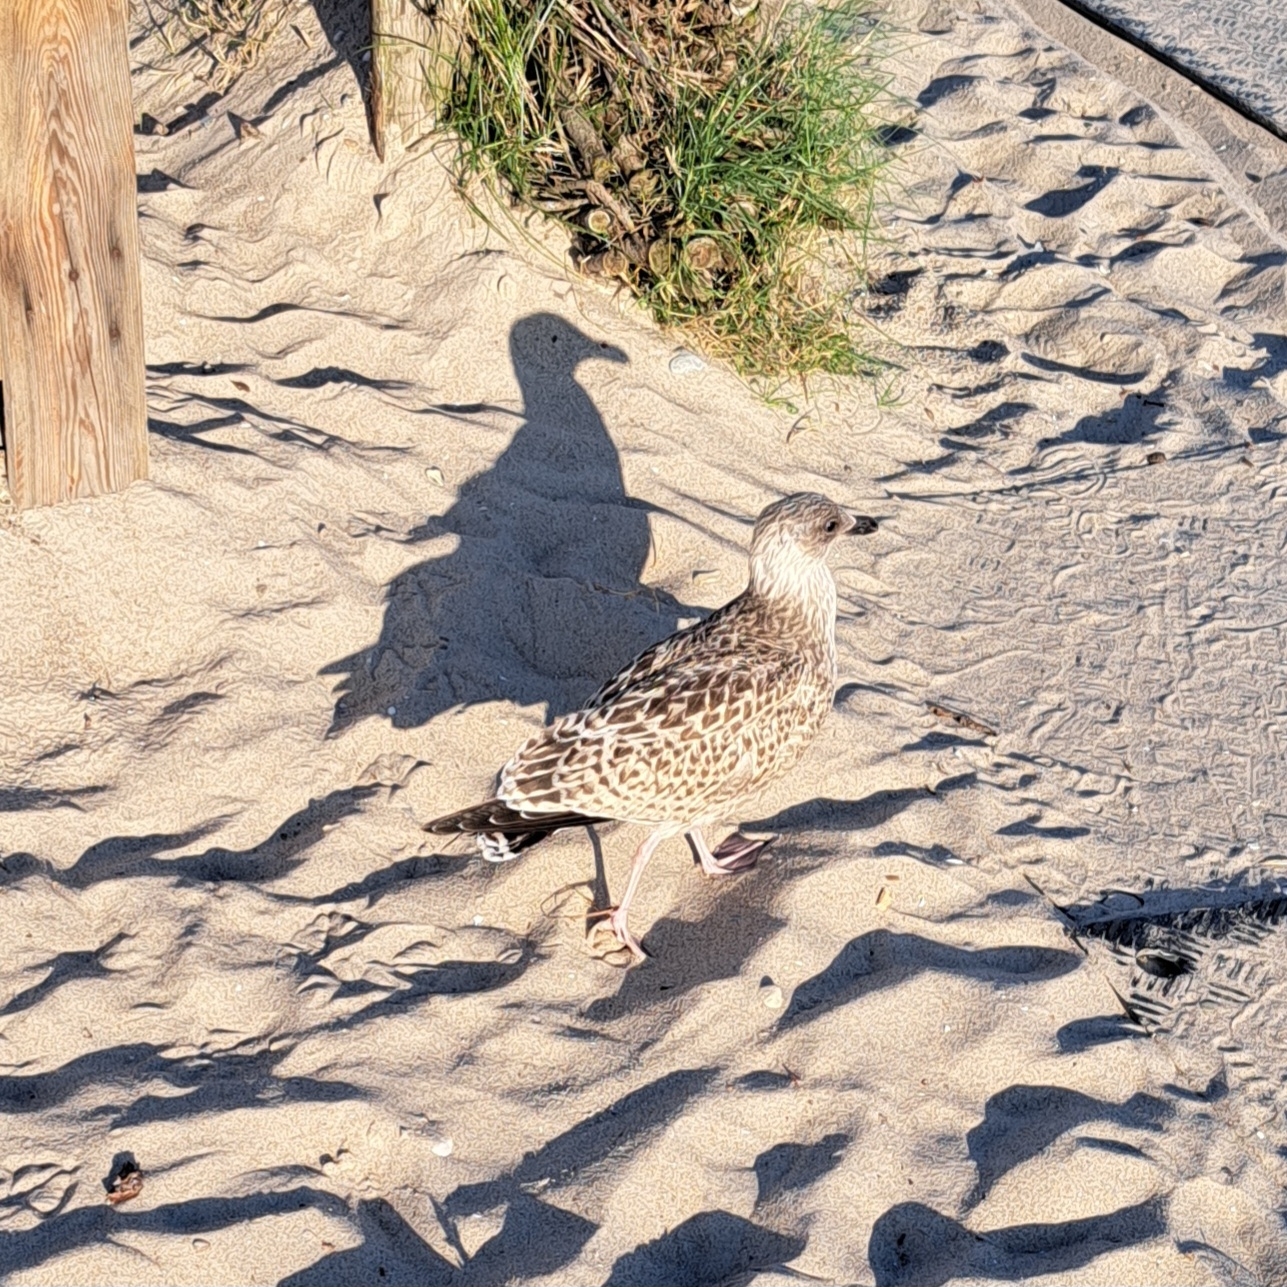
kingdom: Animalia
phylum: Chordata
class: Aves
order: Charadriiformes
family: Laridae
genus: Larus
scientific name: Larus argentatus
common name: Herring gull
